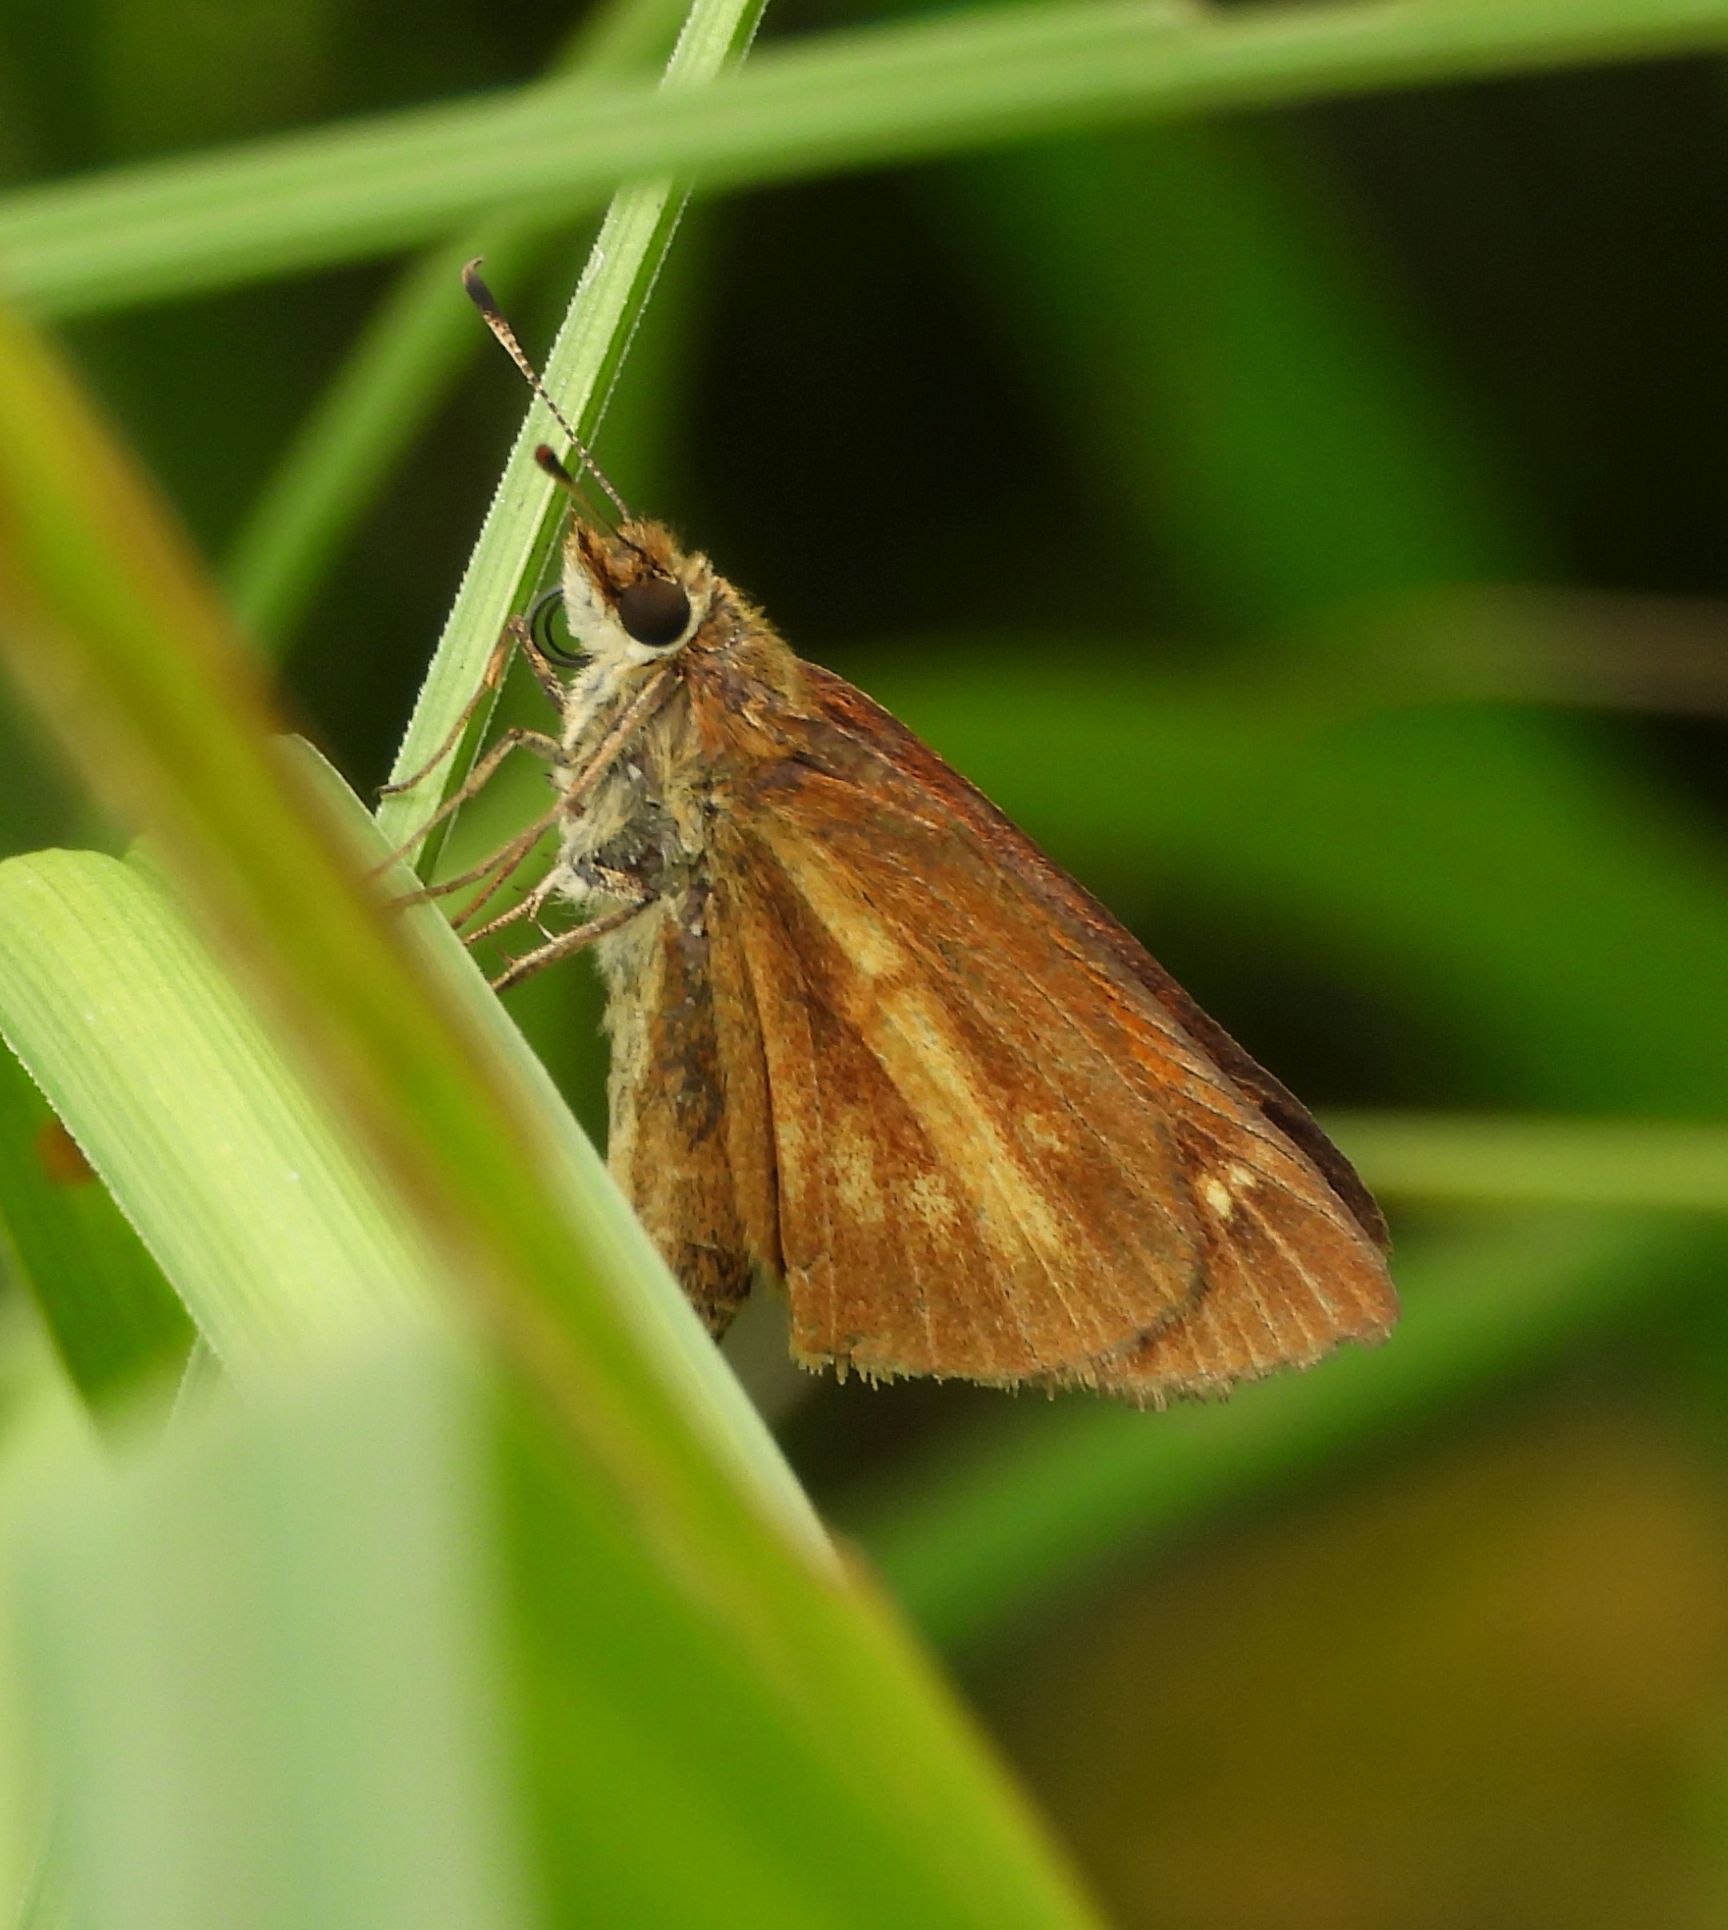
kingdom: Animalia
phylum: Arthropoda
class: Insecta
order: Lepidoptera
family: Hesperiidae
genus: Poanes
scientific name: Poanes viator
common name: Broad-winged skipper
